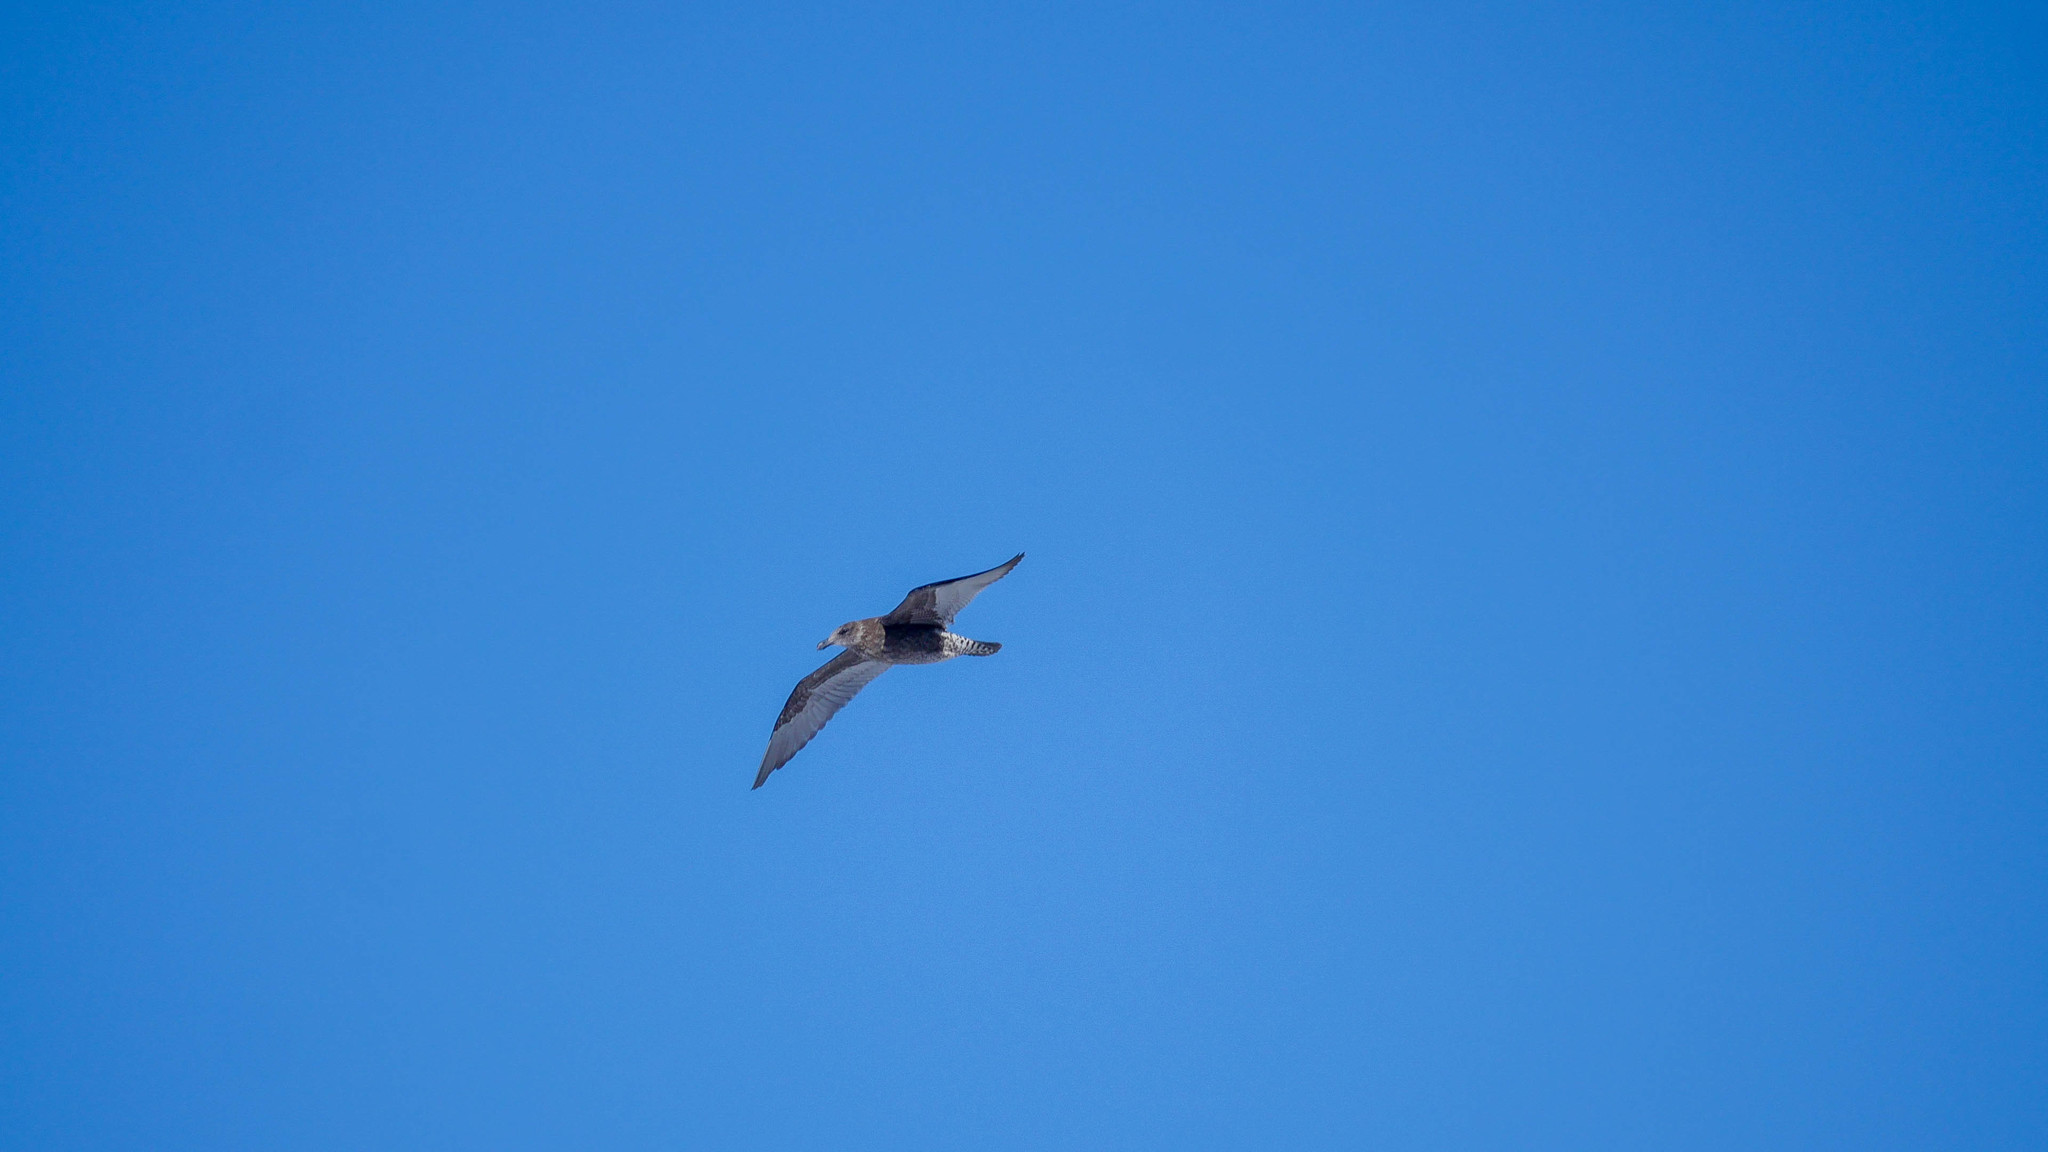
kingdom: Animalia
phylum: Chordata
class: Aves
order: Charadriiformes
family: Laridae
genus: Larus
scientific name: Larus dominicanus
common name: Kelp gull
